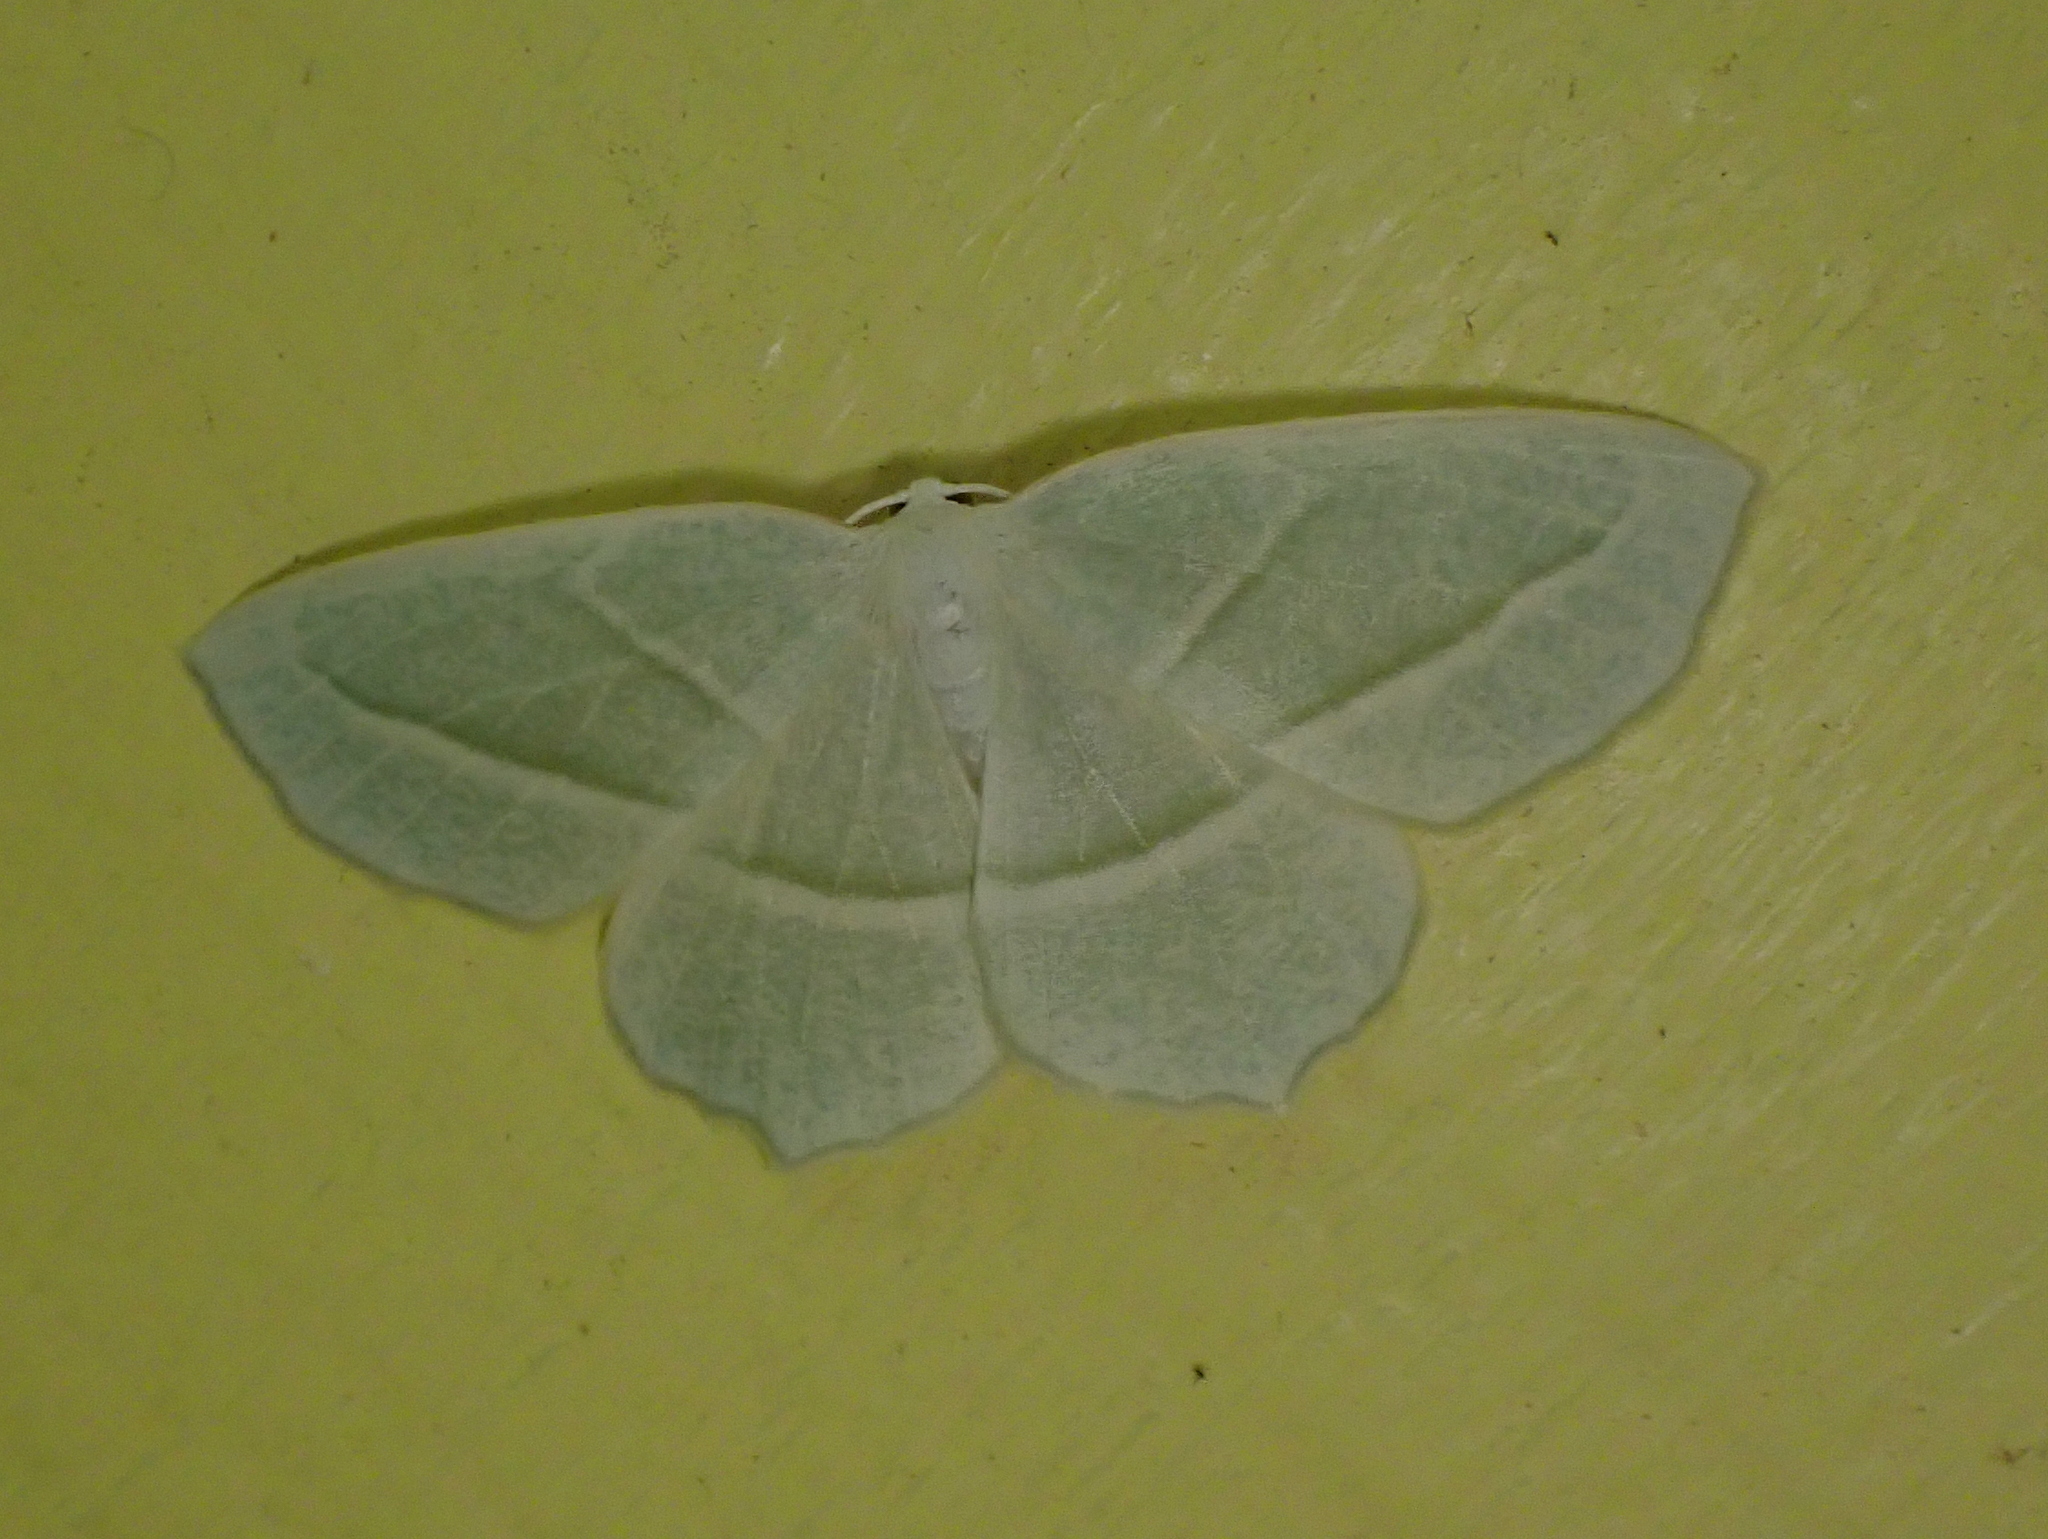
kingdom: Animalia
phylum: Arthropoda
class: Insecta
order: Lepidoptera
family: Geometridae
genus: Campaea
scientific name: Campaea perlata
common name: Fringed looper
